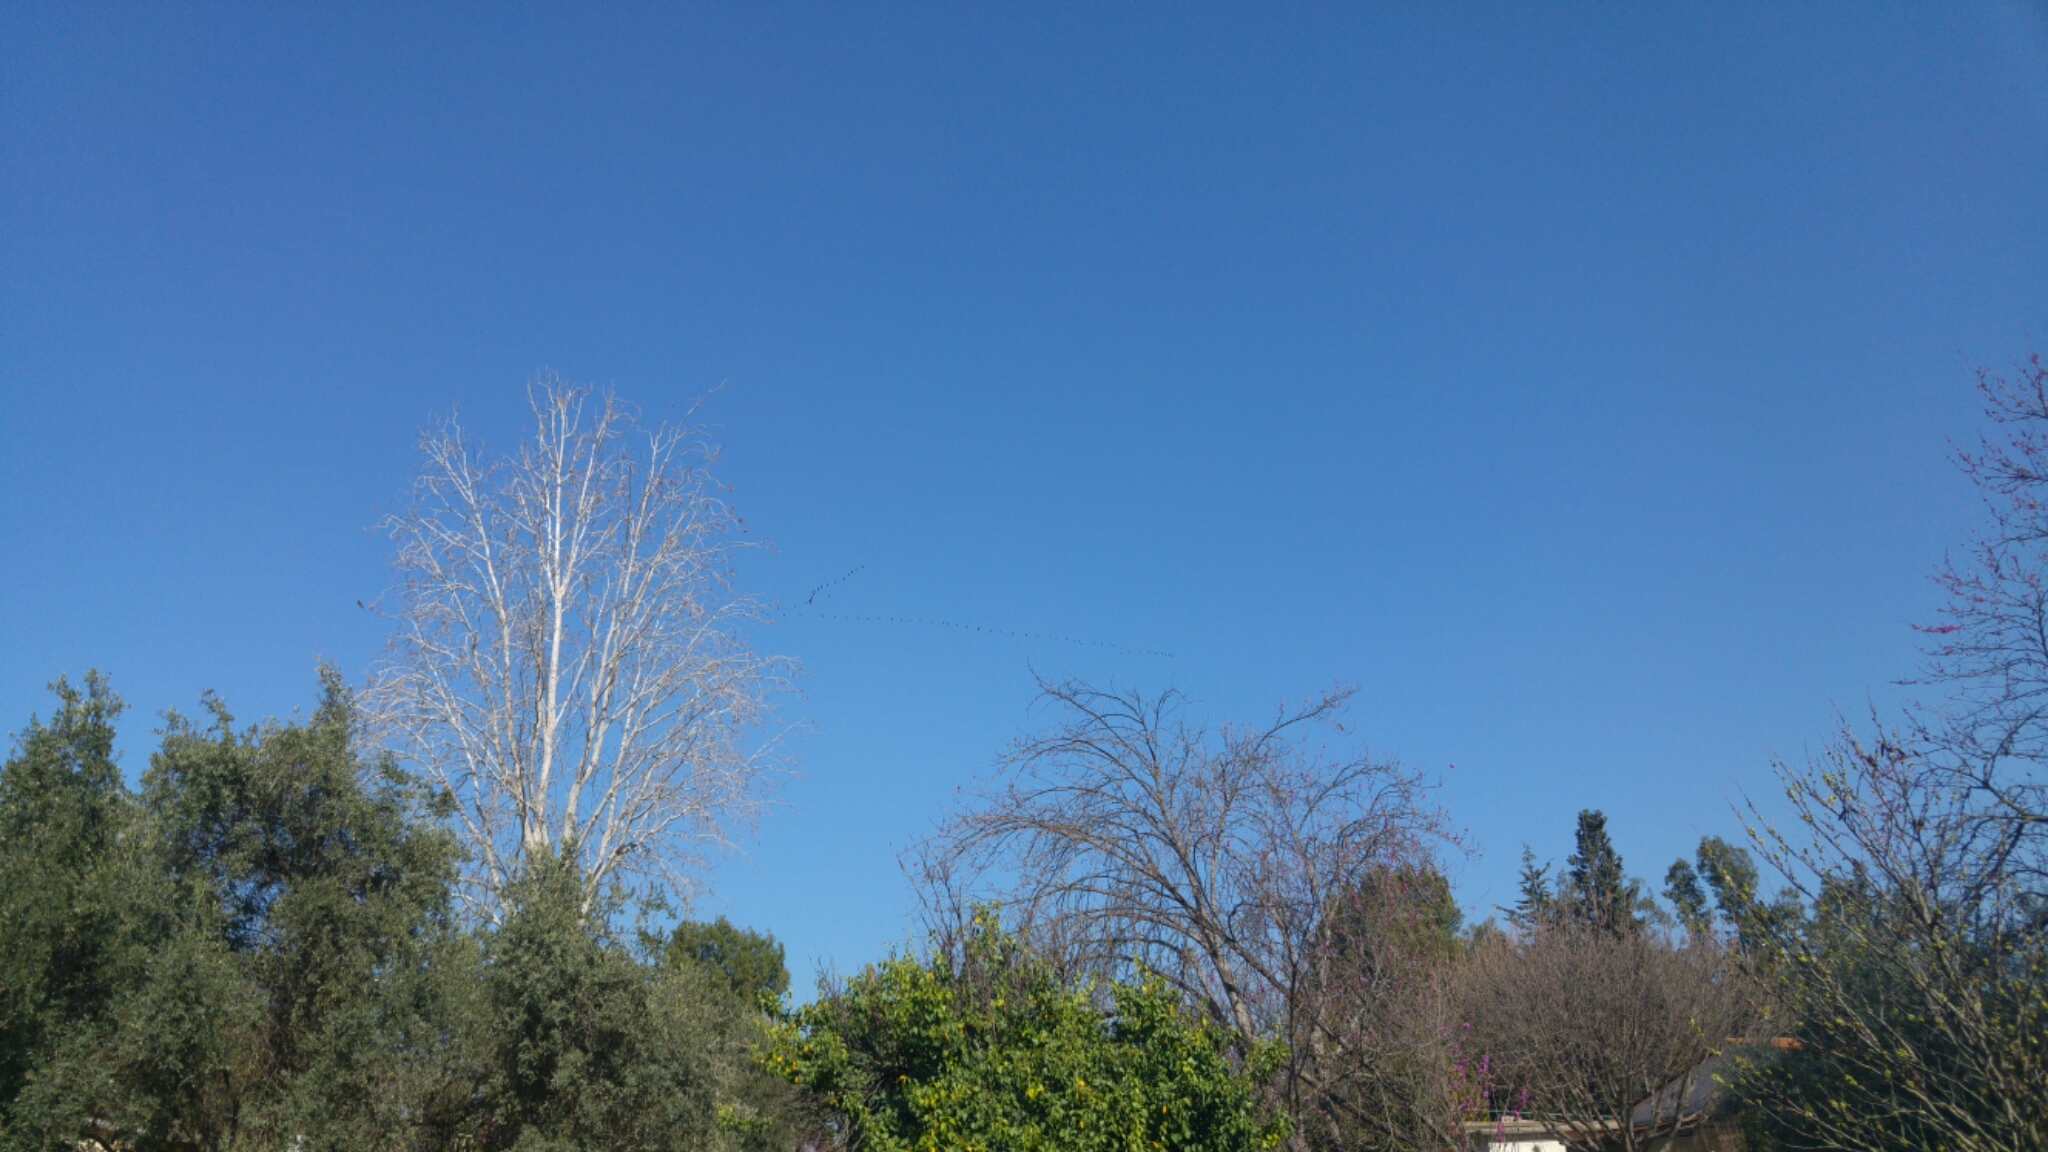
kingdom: Animalia
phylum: Chordata
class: Aves
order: Gruiformes
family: Gruidae
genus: Grus
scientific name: Grus grus
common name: Common crane
